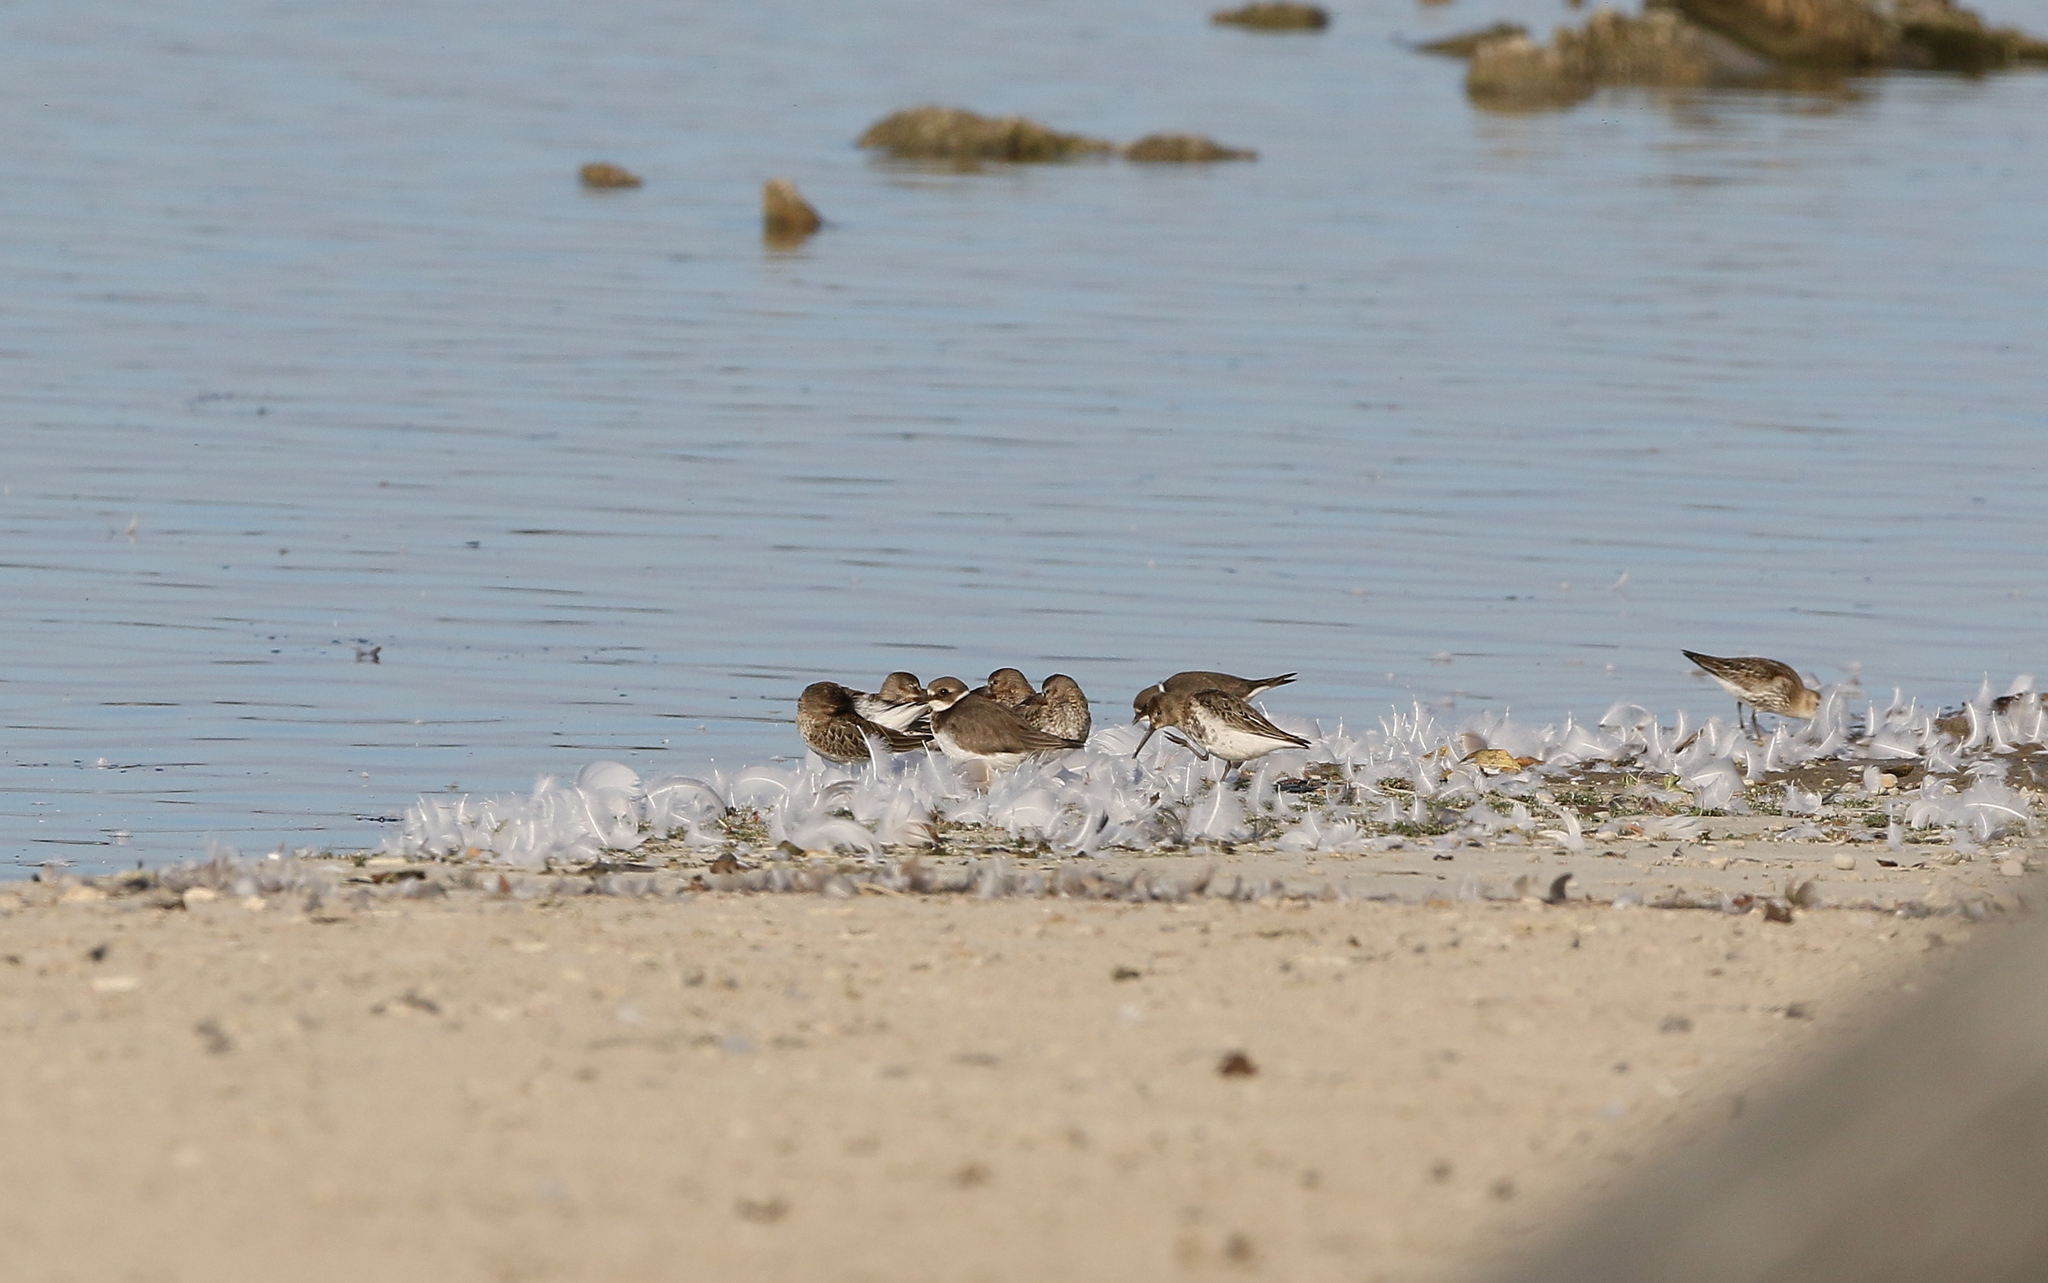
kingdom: Animalia
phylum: Chordata
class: Aves
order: Charadriiformes
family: Scolopacidae
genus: Calidris
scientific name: Calidris alpina
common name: Dunlin
